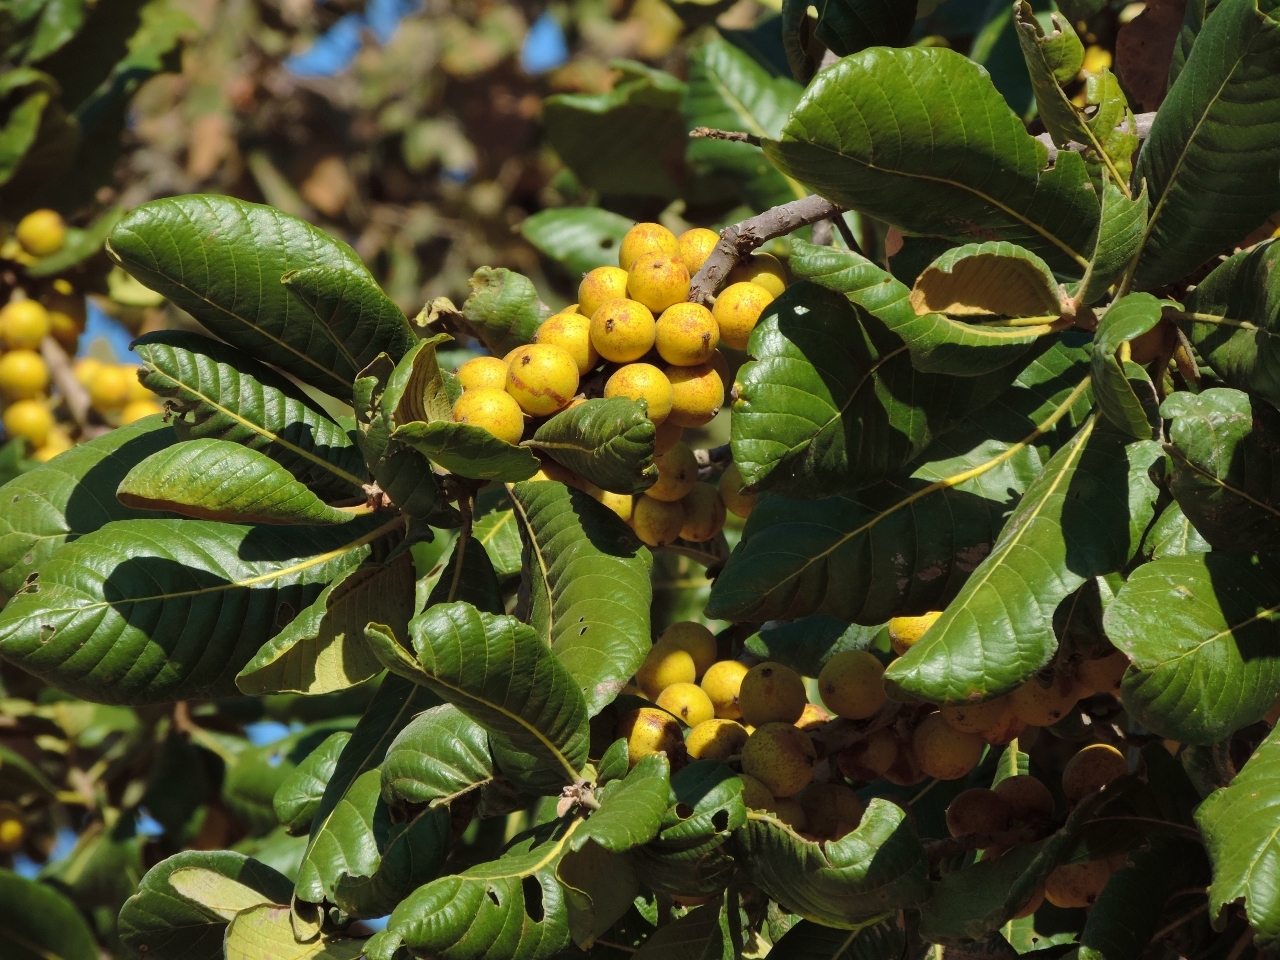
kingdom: Plantae
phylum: Tracheophyta
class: Magnoliopsida
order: Malpighiales
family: Phyllanthaceae
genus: Uapaca
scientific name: Uapaca kirkiana
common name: Wild loquat
